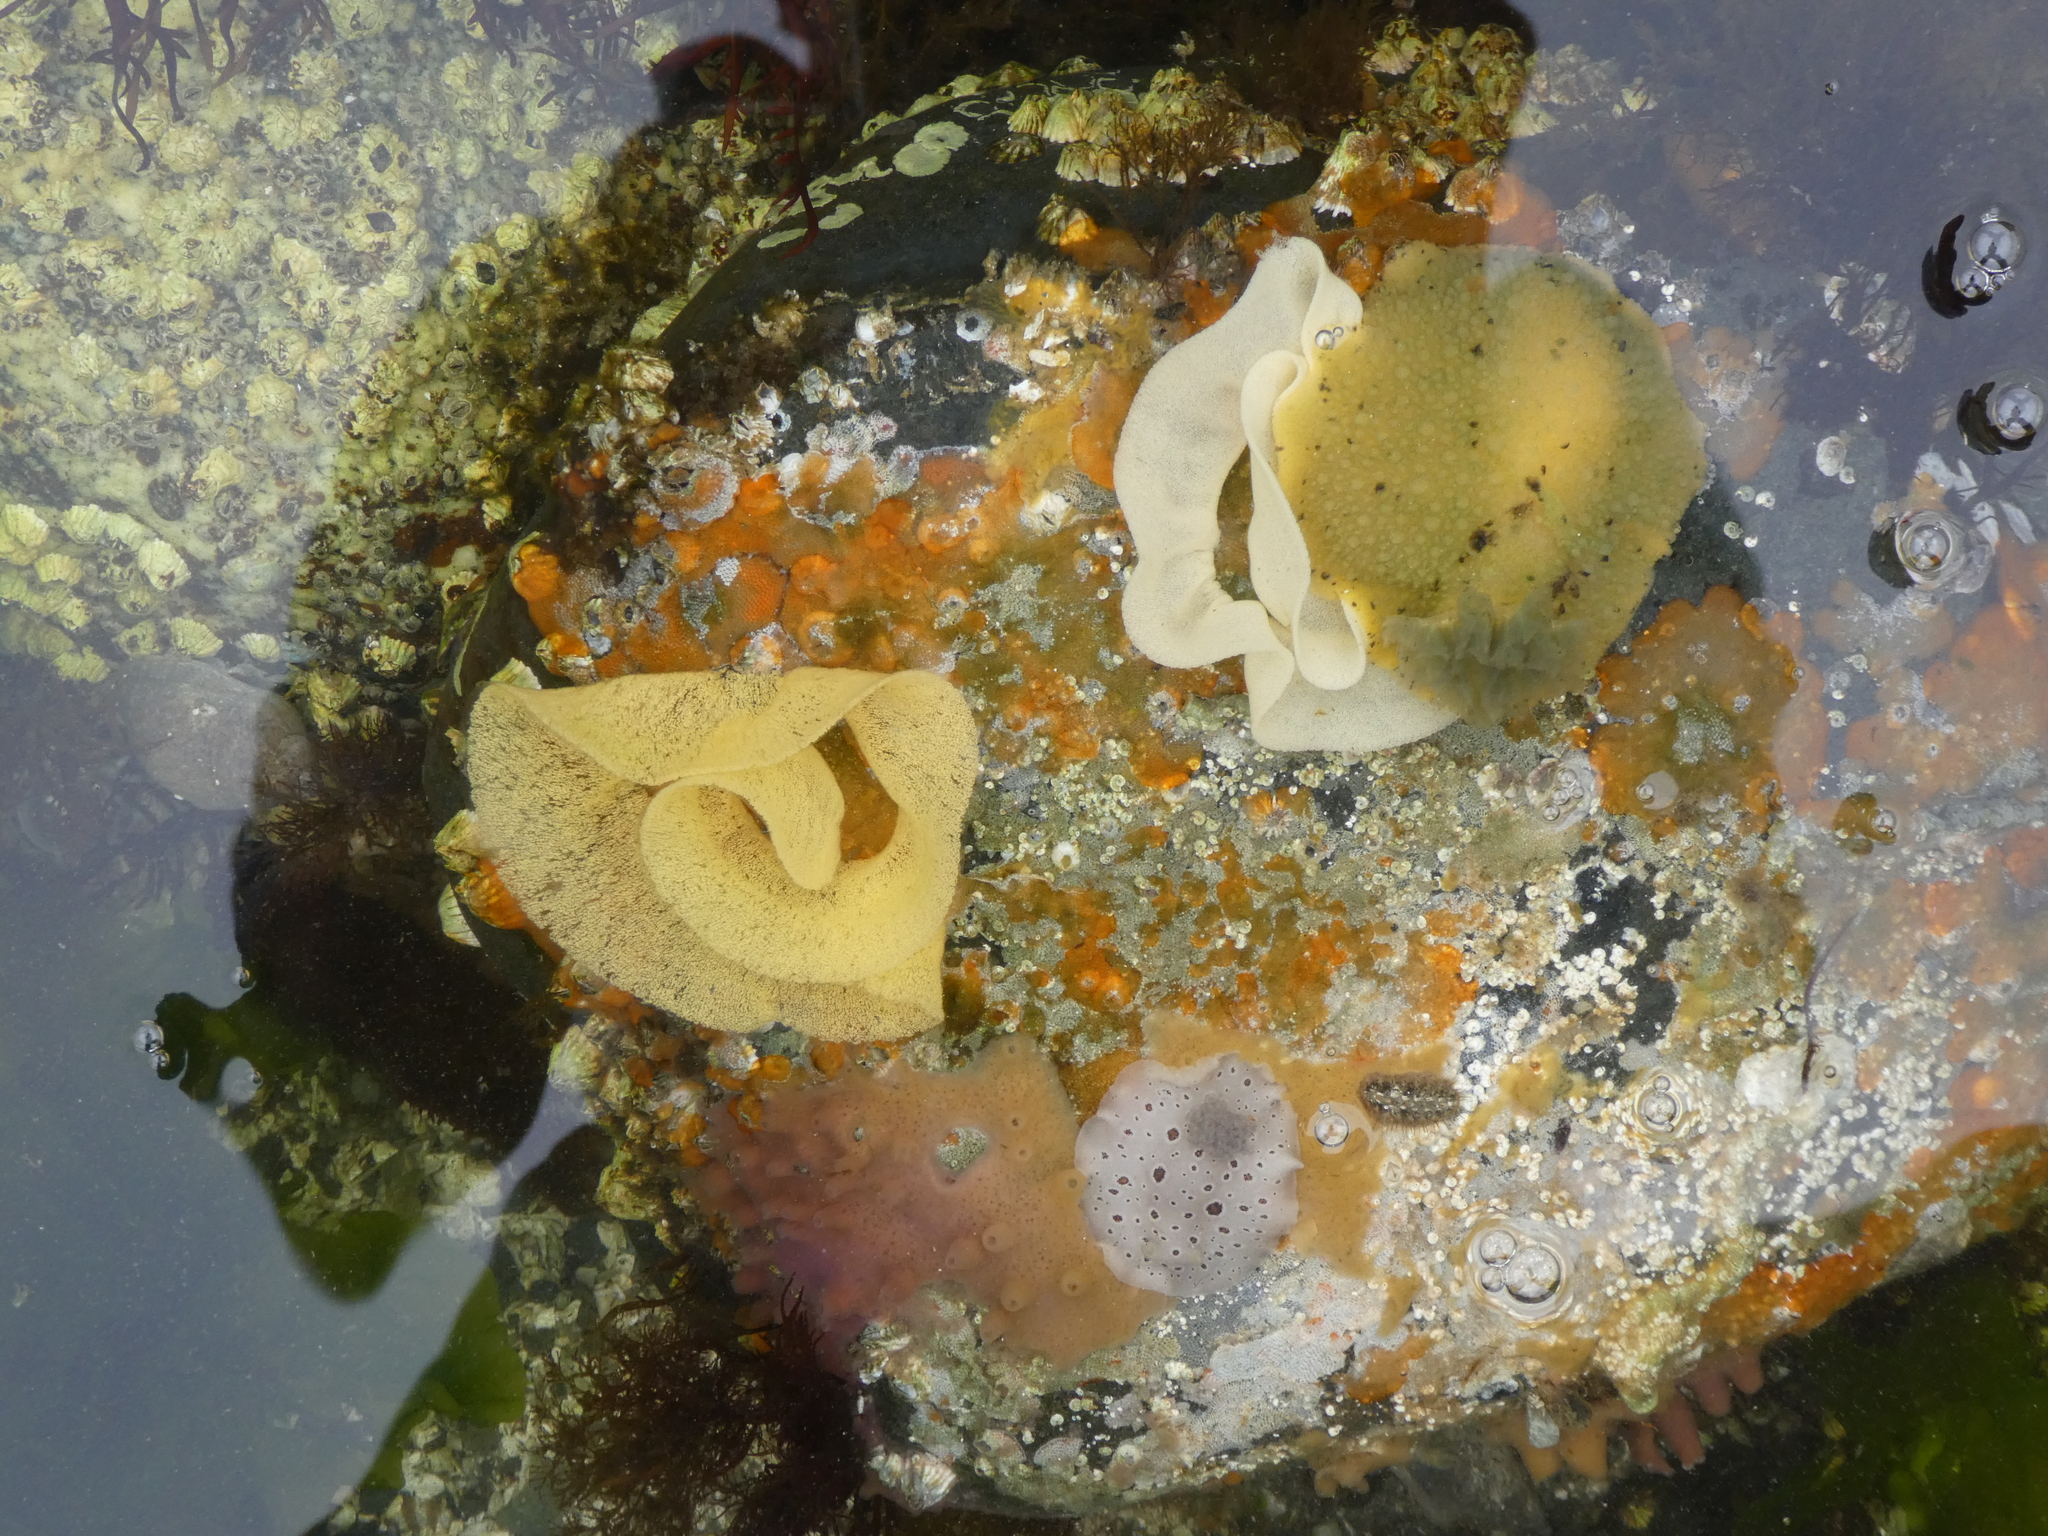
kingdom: Animalia
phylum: Mollusca
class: Gastropoda
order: Nudibranchia
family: Dorididae
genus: Doris
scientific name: Doris montereyensis
